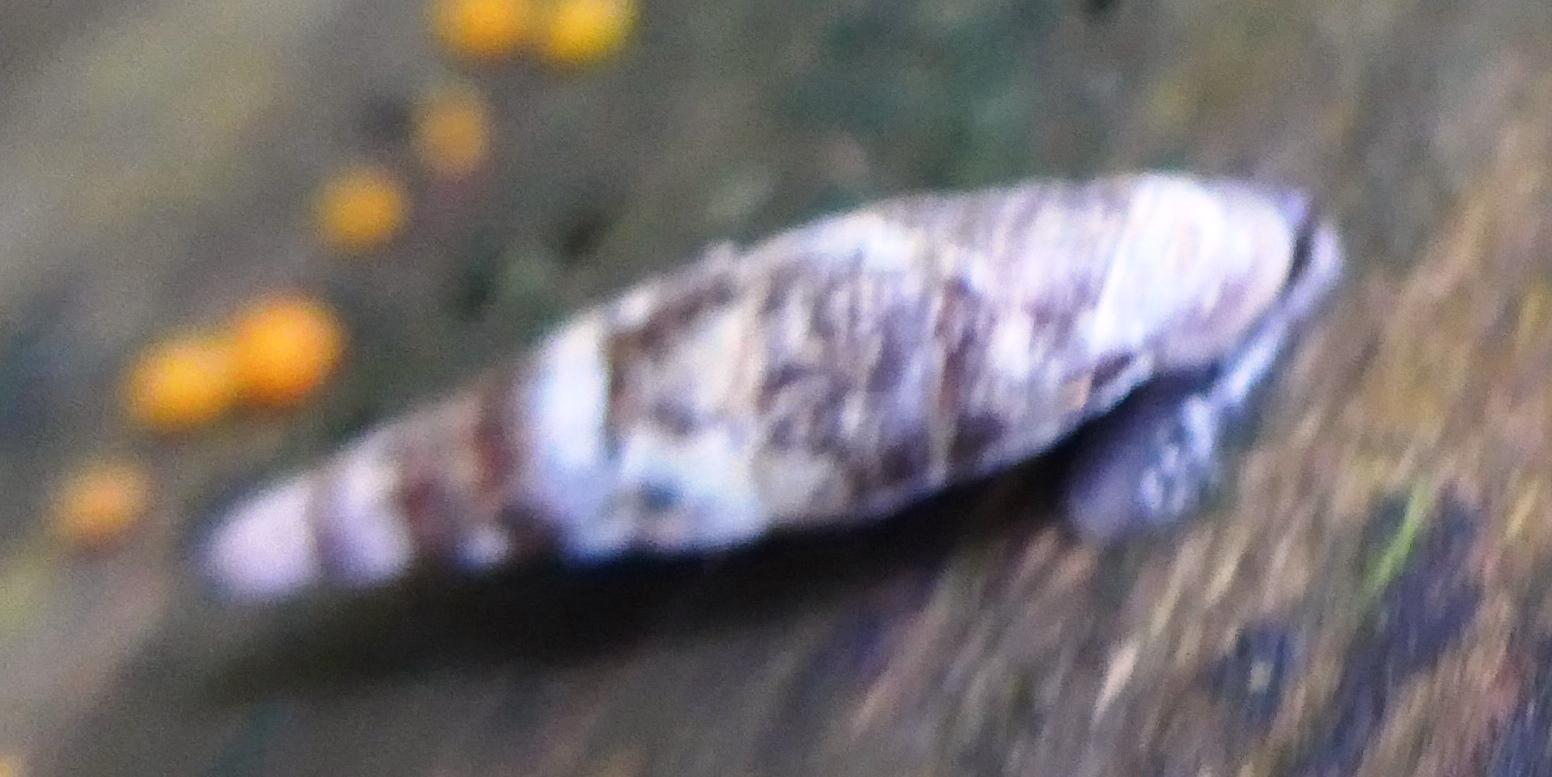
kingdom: Animalia
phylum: Mollusca
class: Gastropoda
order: Stylommatophora
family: Clausiliidae
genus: Cochlodina
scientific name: Cochlodina laminata
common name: Plaited door snail
